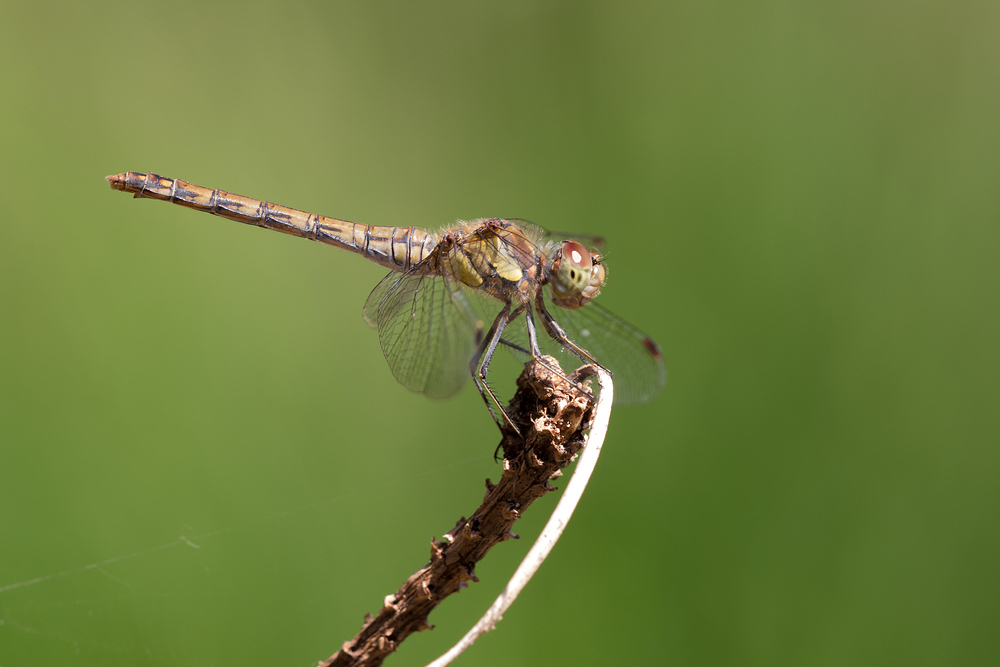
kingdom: Animalia
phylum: Arthropoda
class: Insecta
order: Odonata
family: Libellulidae
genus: Sympetrum
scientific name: Sympetrum striolatum
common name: Common darter
